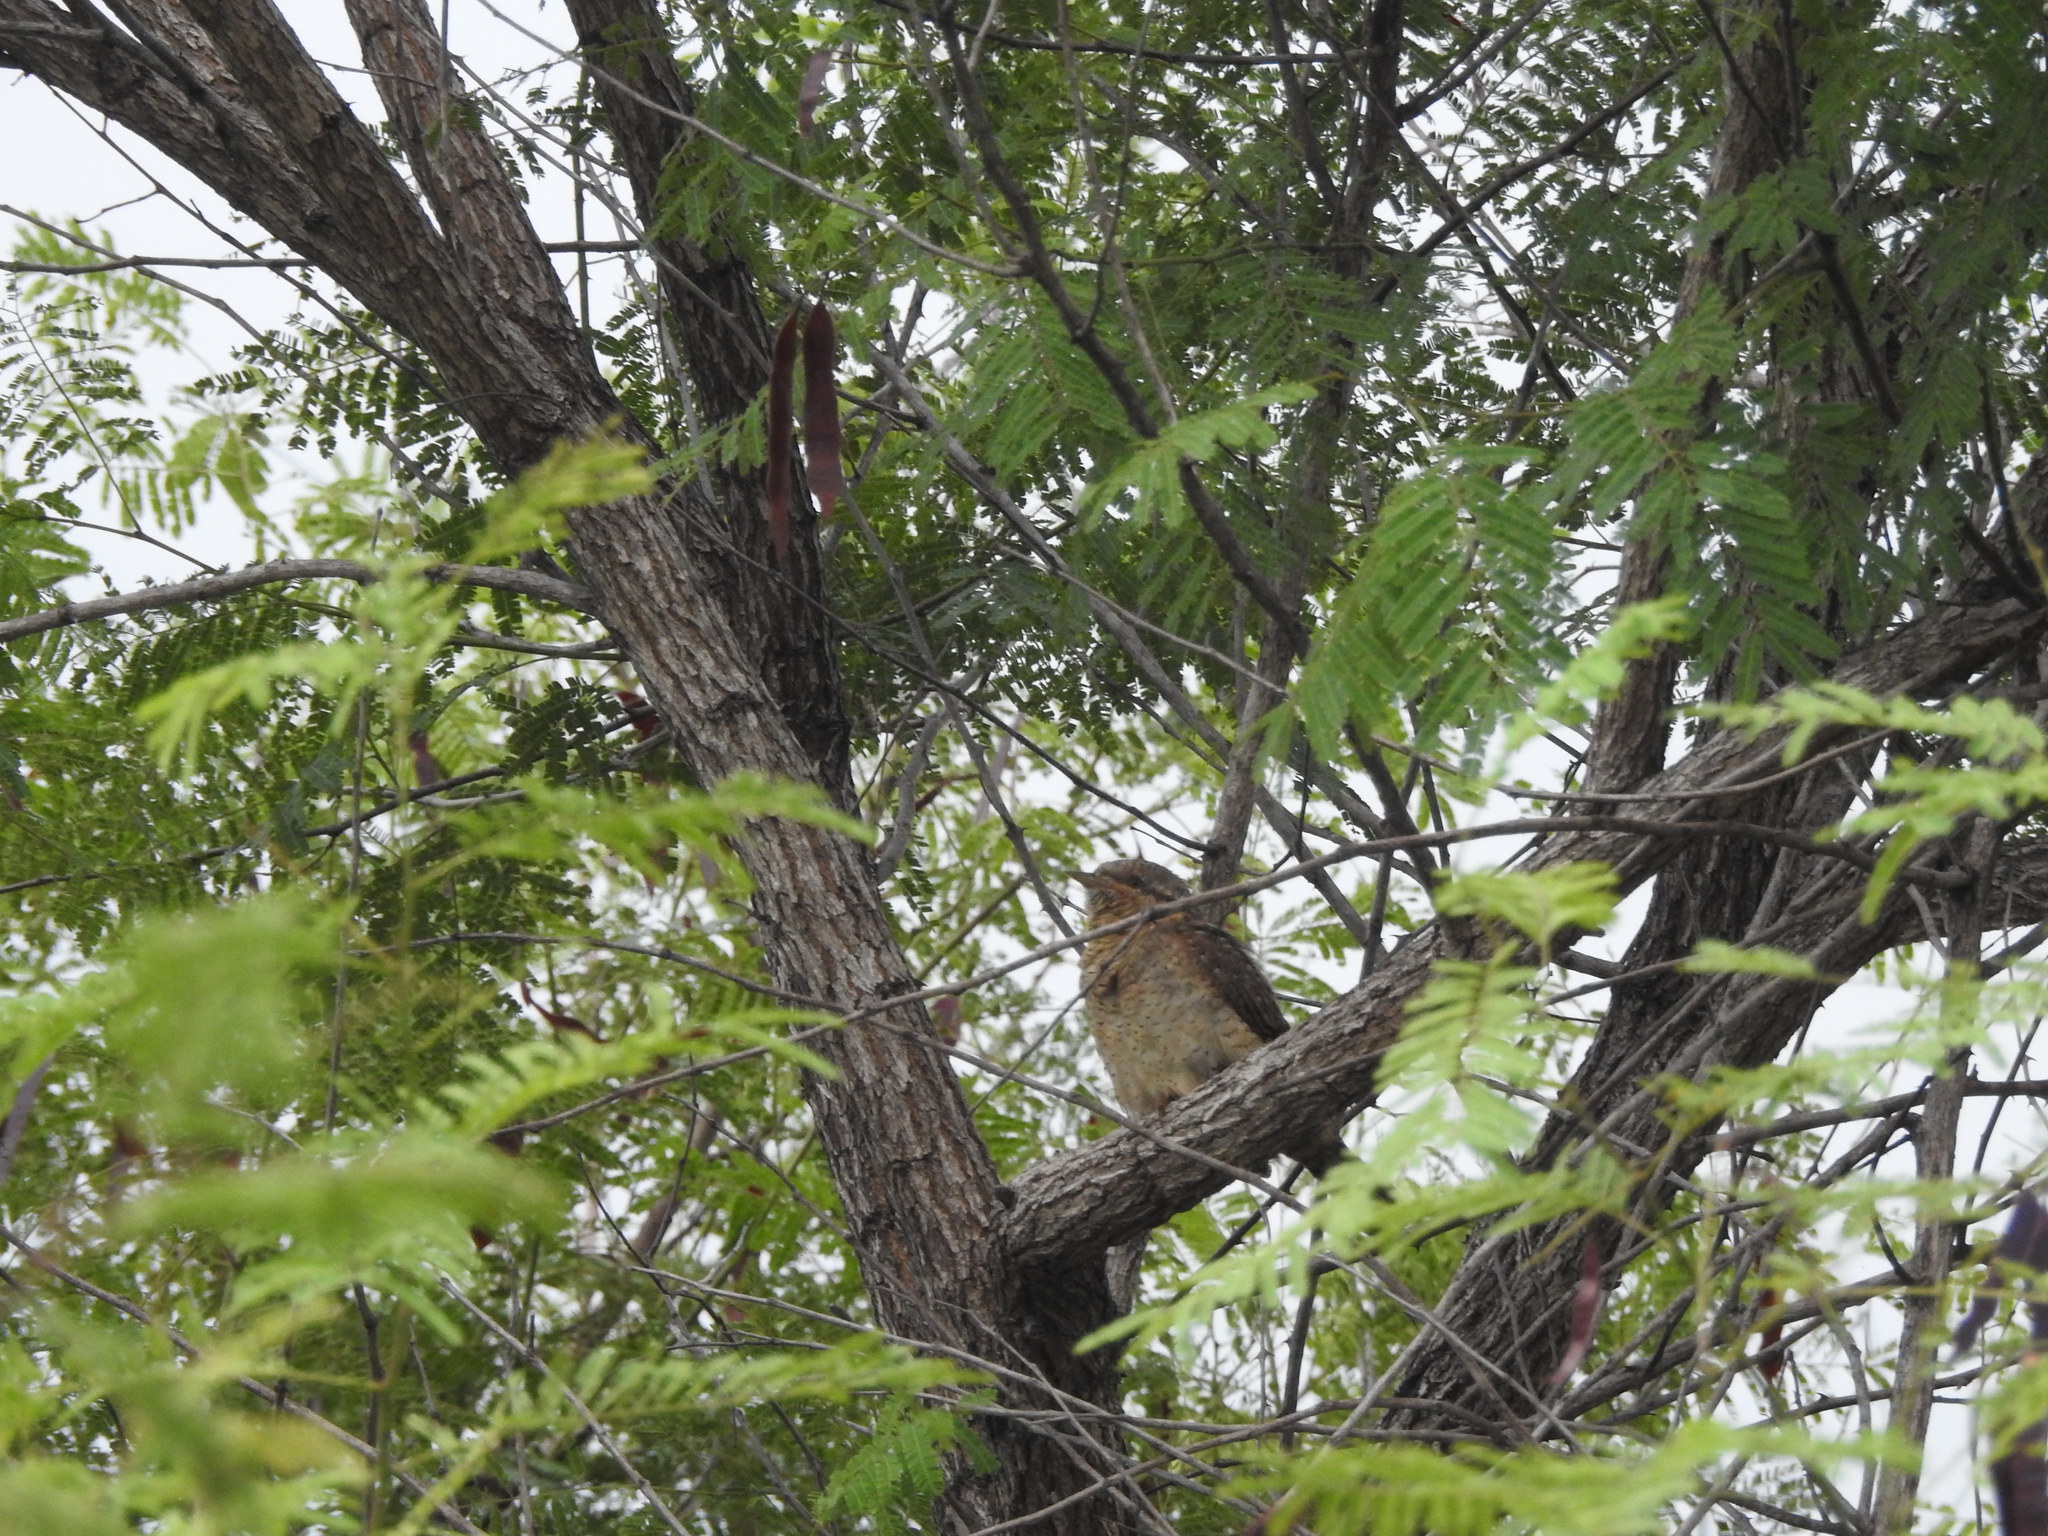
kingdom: Animalia
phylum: Chordata
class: Aves
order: Piciformes
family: Picidae
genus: Jynx
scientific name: Jynx torquilla
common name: Eurasian wryneck
